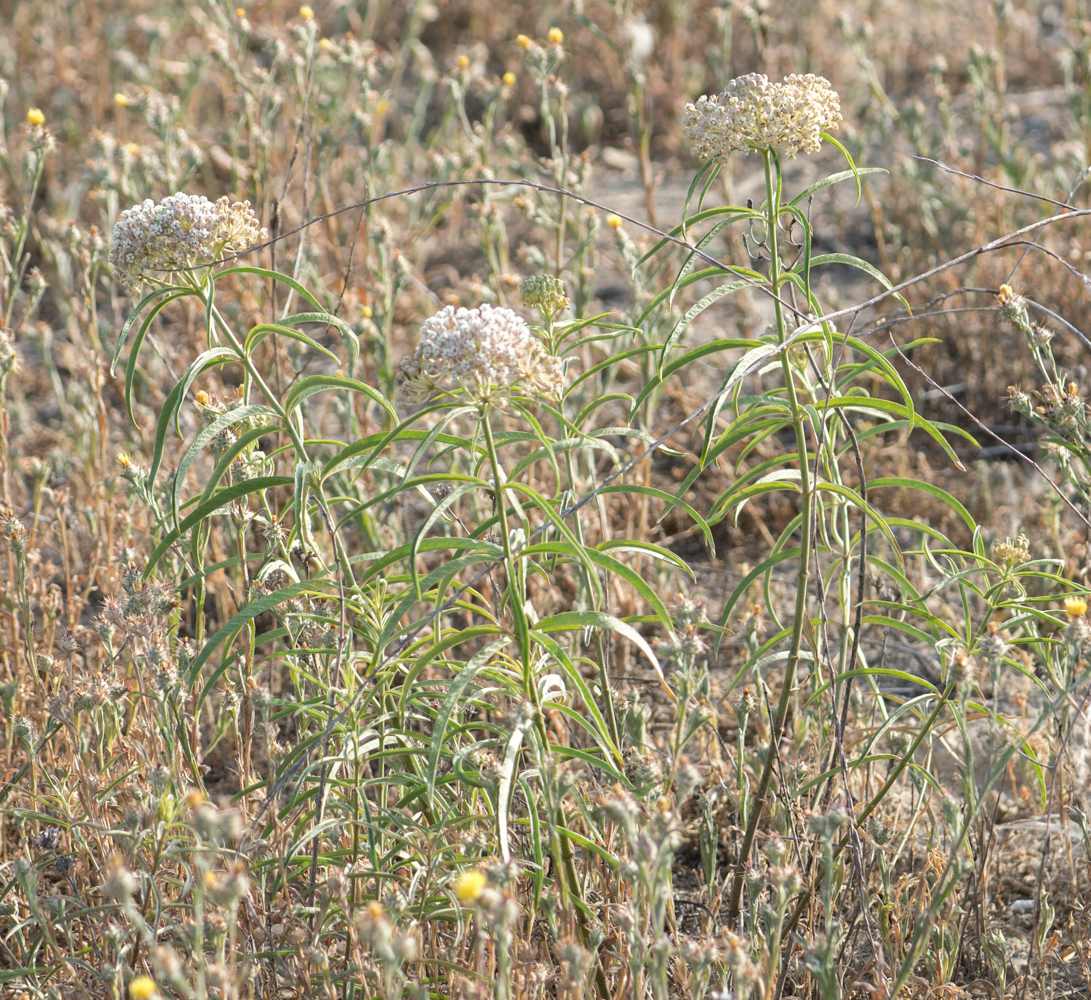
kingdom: Plantae
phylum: Tracheophyta
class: Magnoliopsida
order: Gentianales
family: Apocynaceae
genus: Asclepias
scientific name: Asclepias fascicularis
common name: Mexican milkweed
